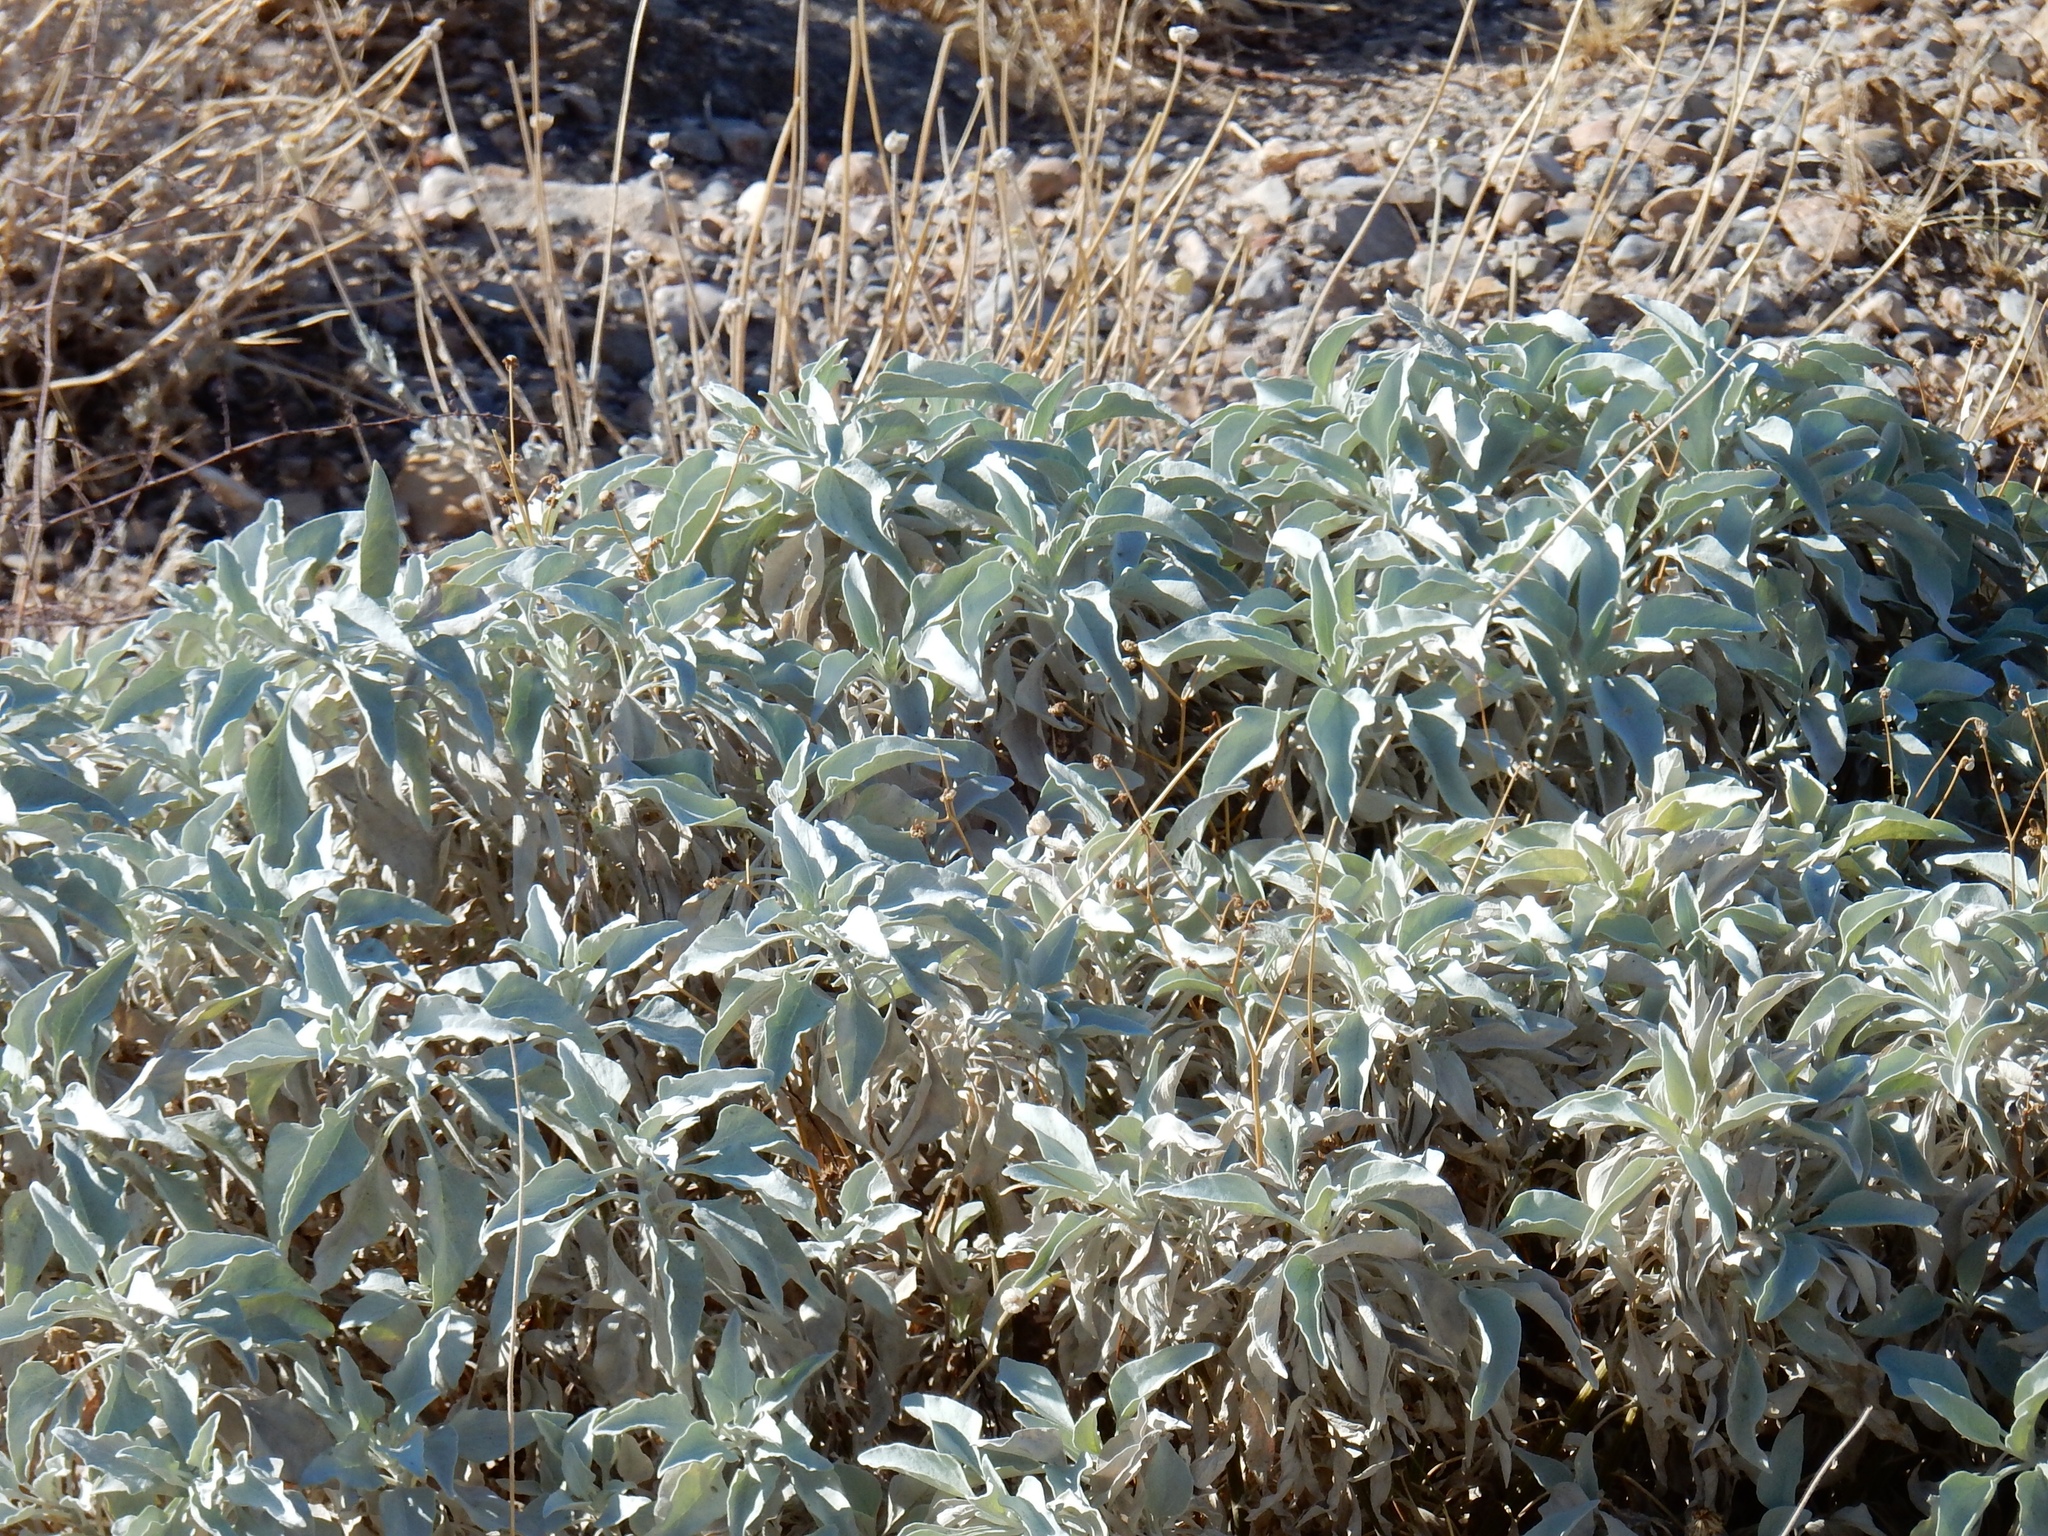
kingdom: Plantae
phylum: Tracheophyta
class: Magnoliopsida
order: Asterales
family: Asteraceae
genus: Encelia
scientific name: Encelia farinosa
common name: Brittlebush
